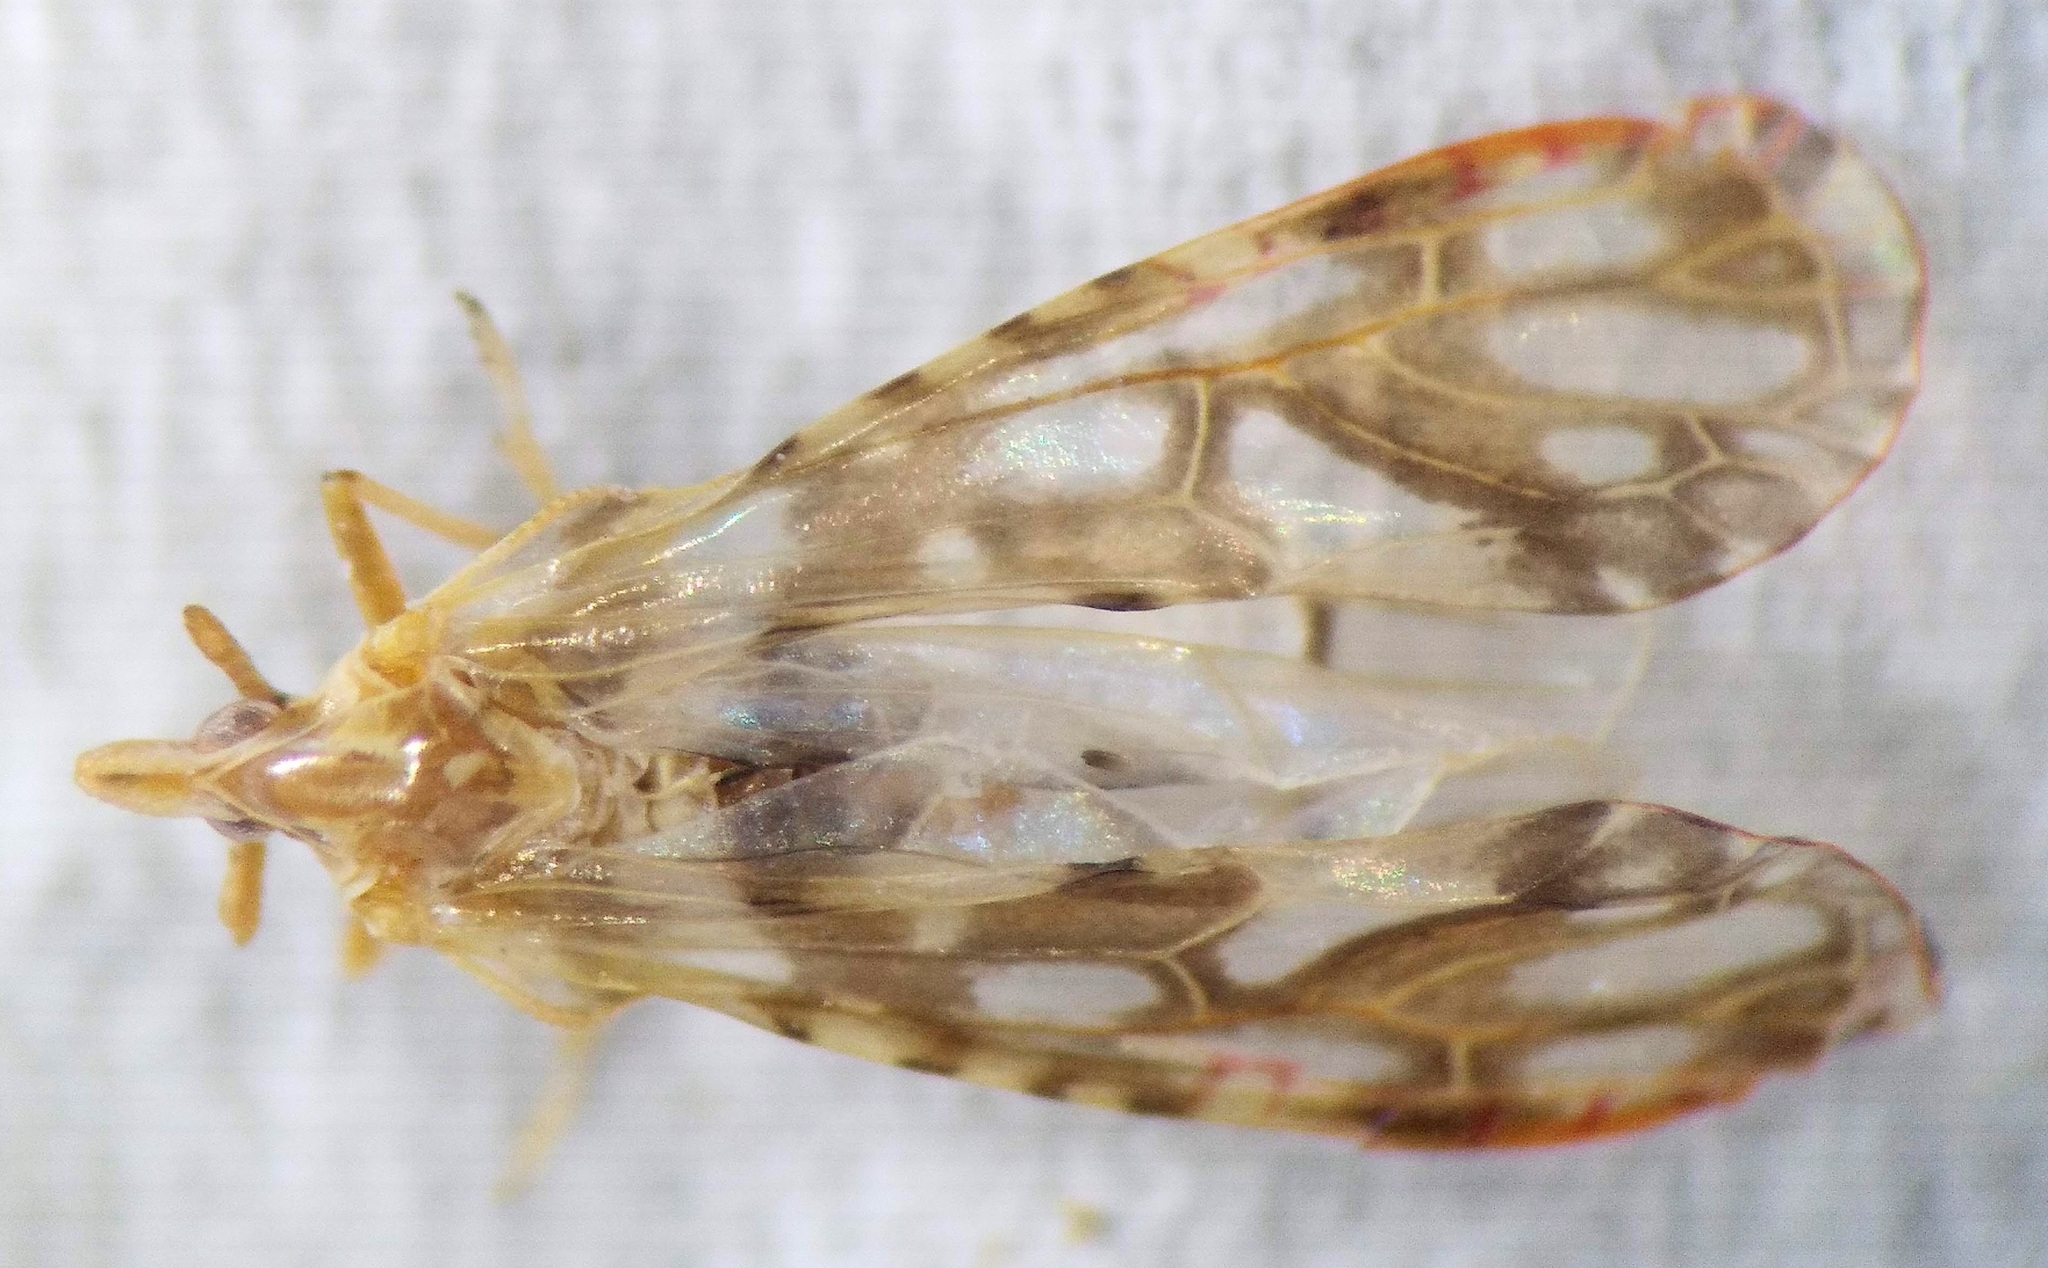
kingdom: Animalia
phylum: Arthropoda
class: Insecta
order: Hemiptera
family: Derbidae
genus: Anotia
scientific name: Anotia kirkaldyi
